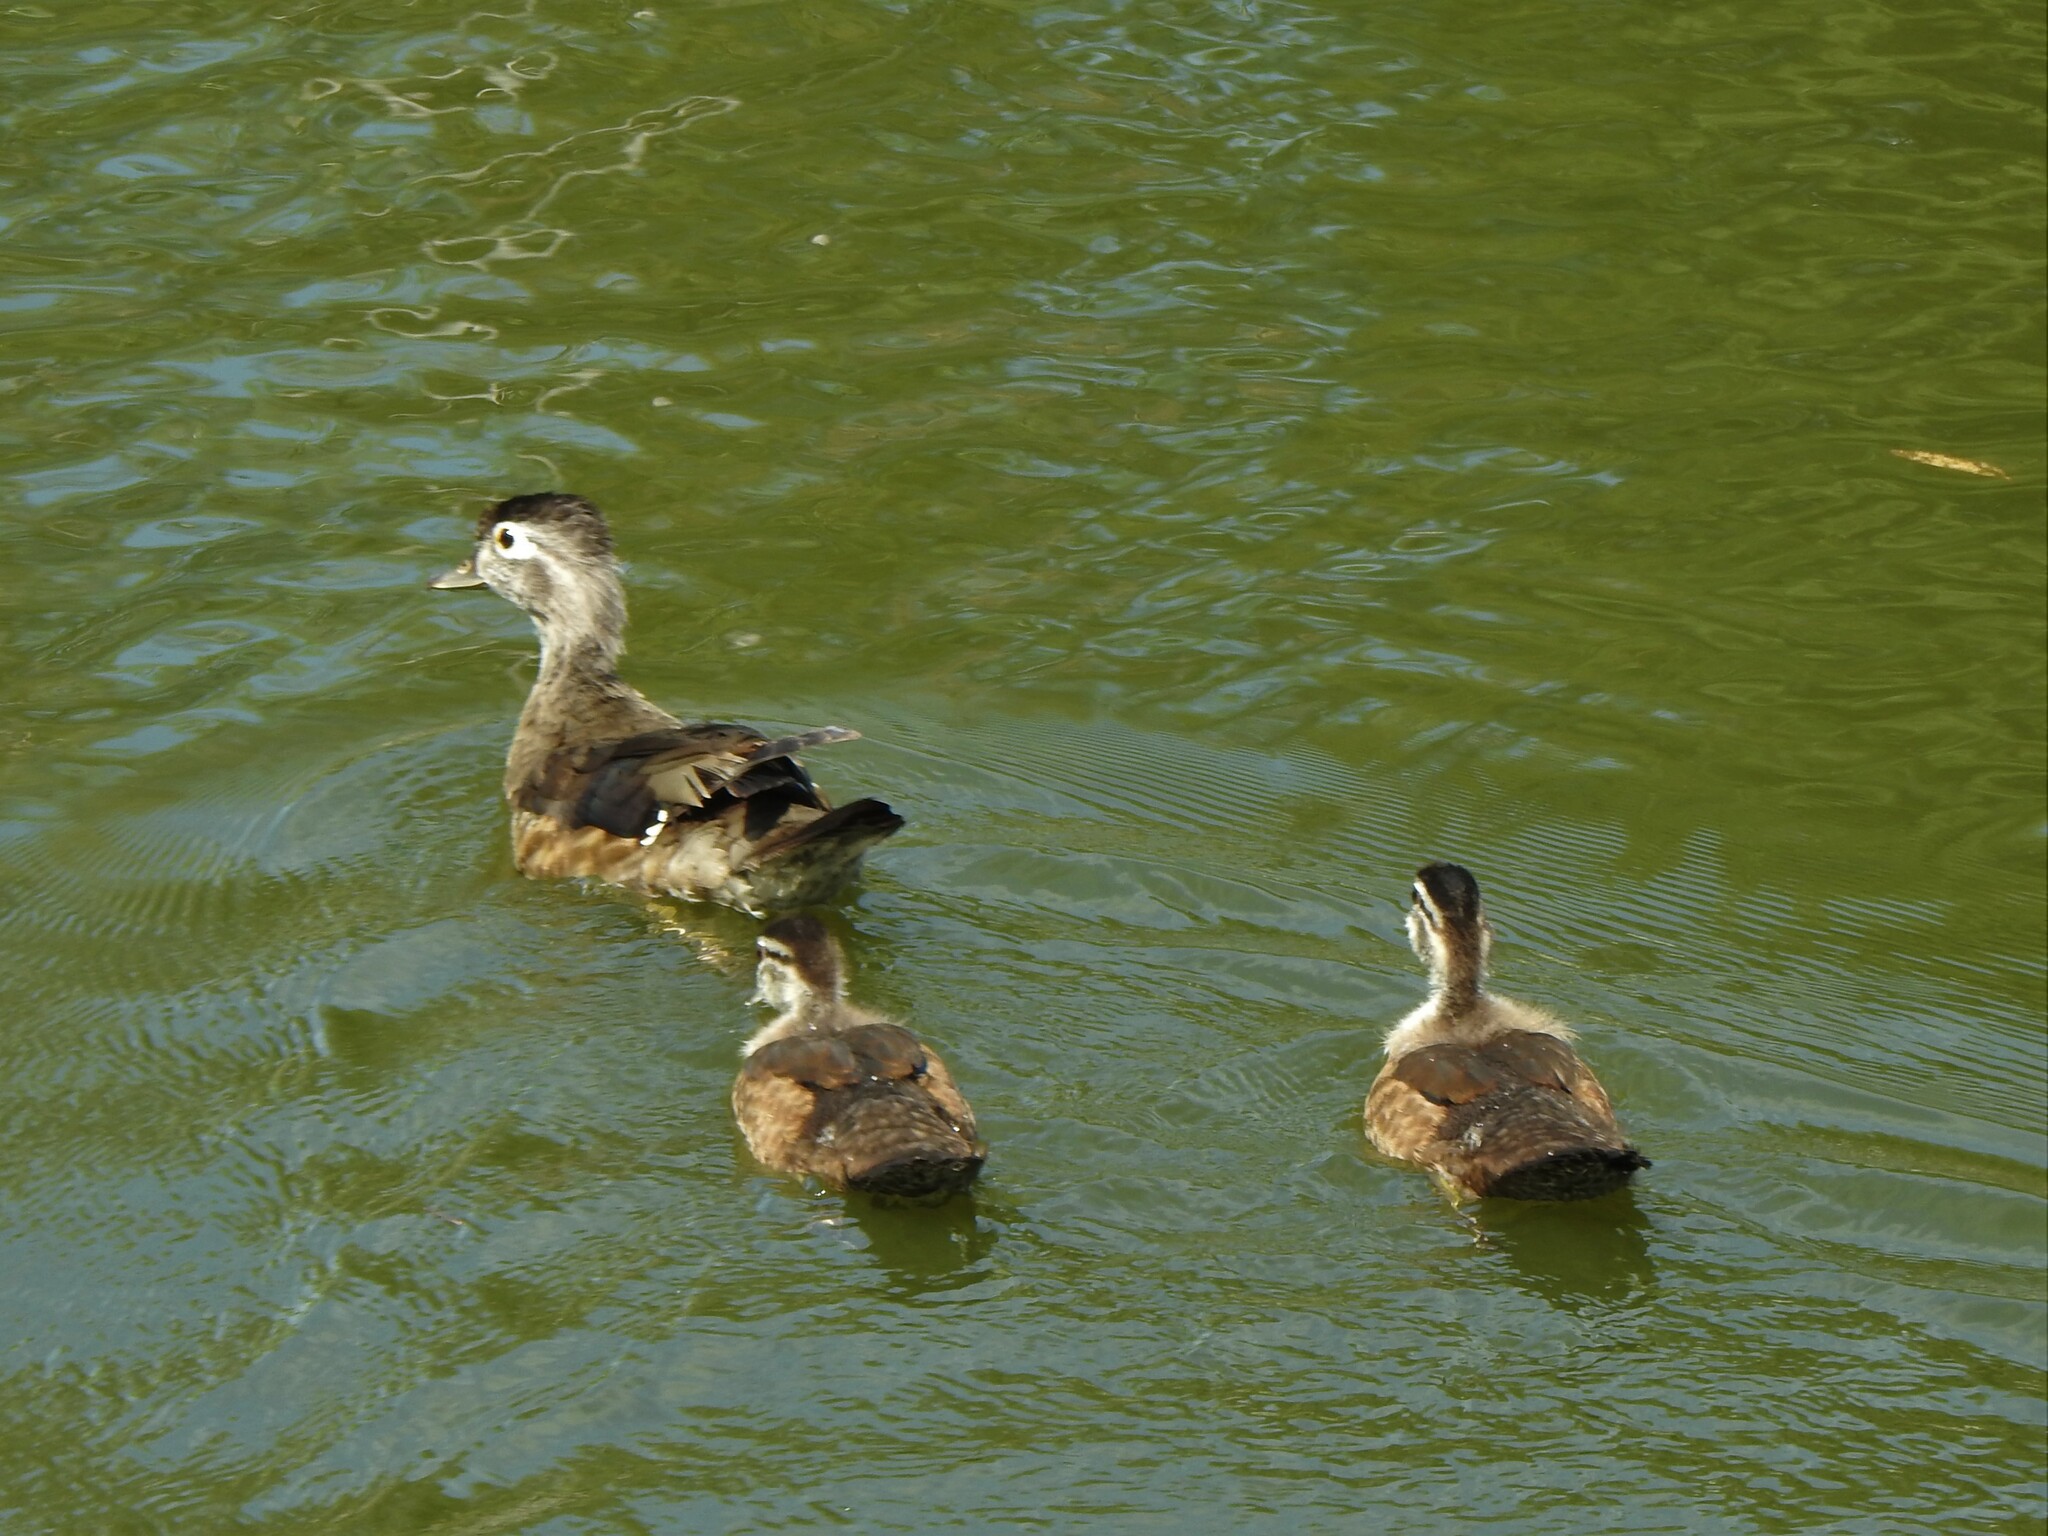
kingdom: Animalia
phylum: Chordata
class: Aves
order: Anseriformes
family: Anatidae
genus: Aix
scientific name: Aix sponsa
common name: Wood duck
